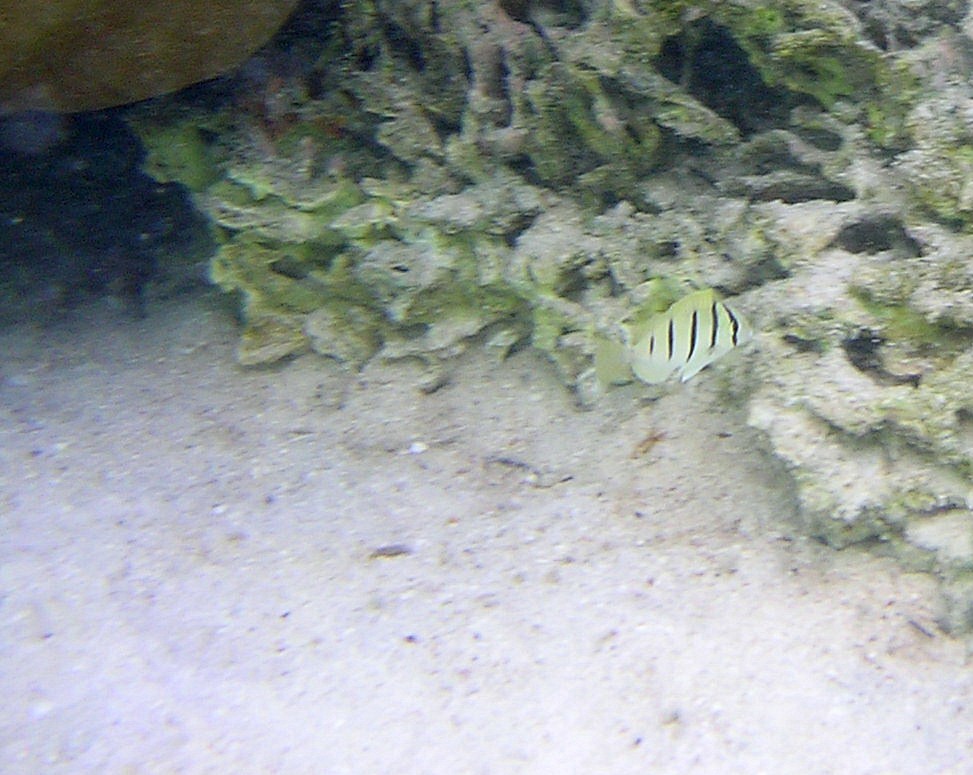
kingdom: Animalia
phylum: Chordata
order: Perciformes
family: Acanthuridae
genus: Acanthurus
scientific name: Acanthurus triostegus
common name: Convict surgeonfish
